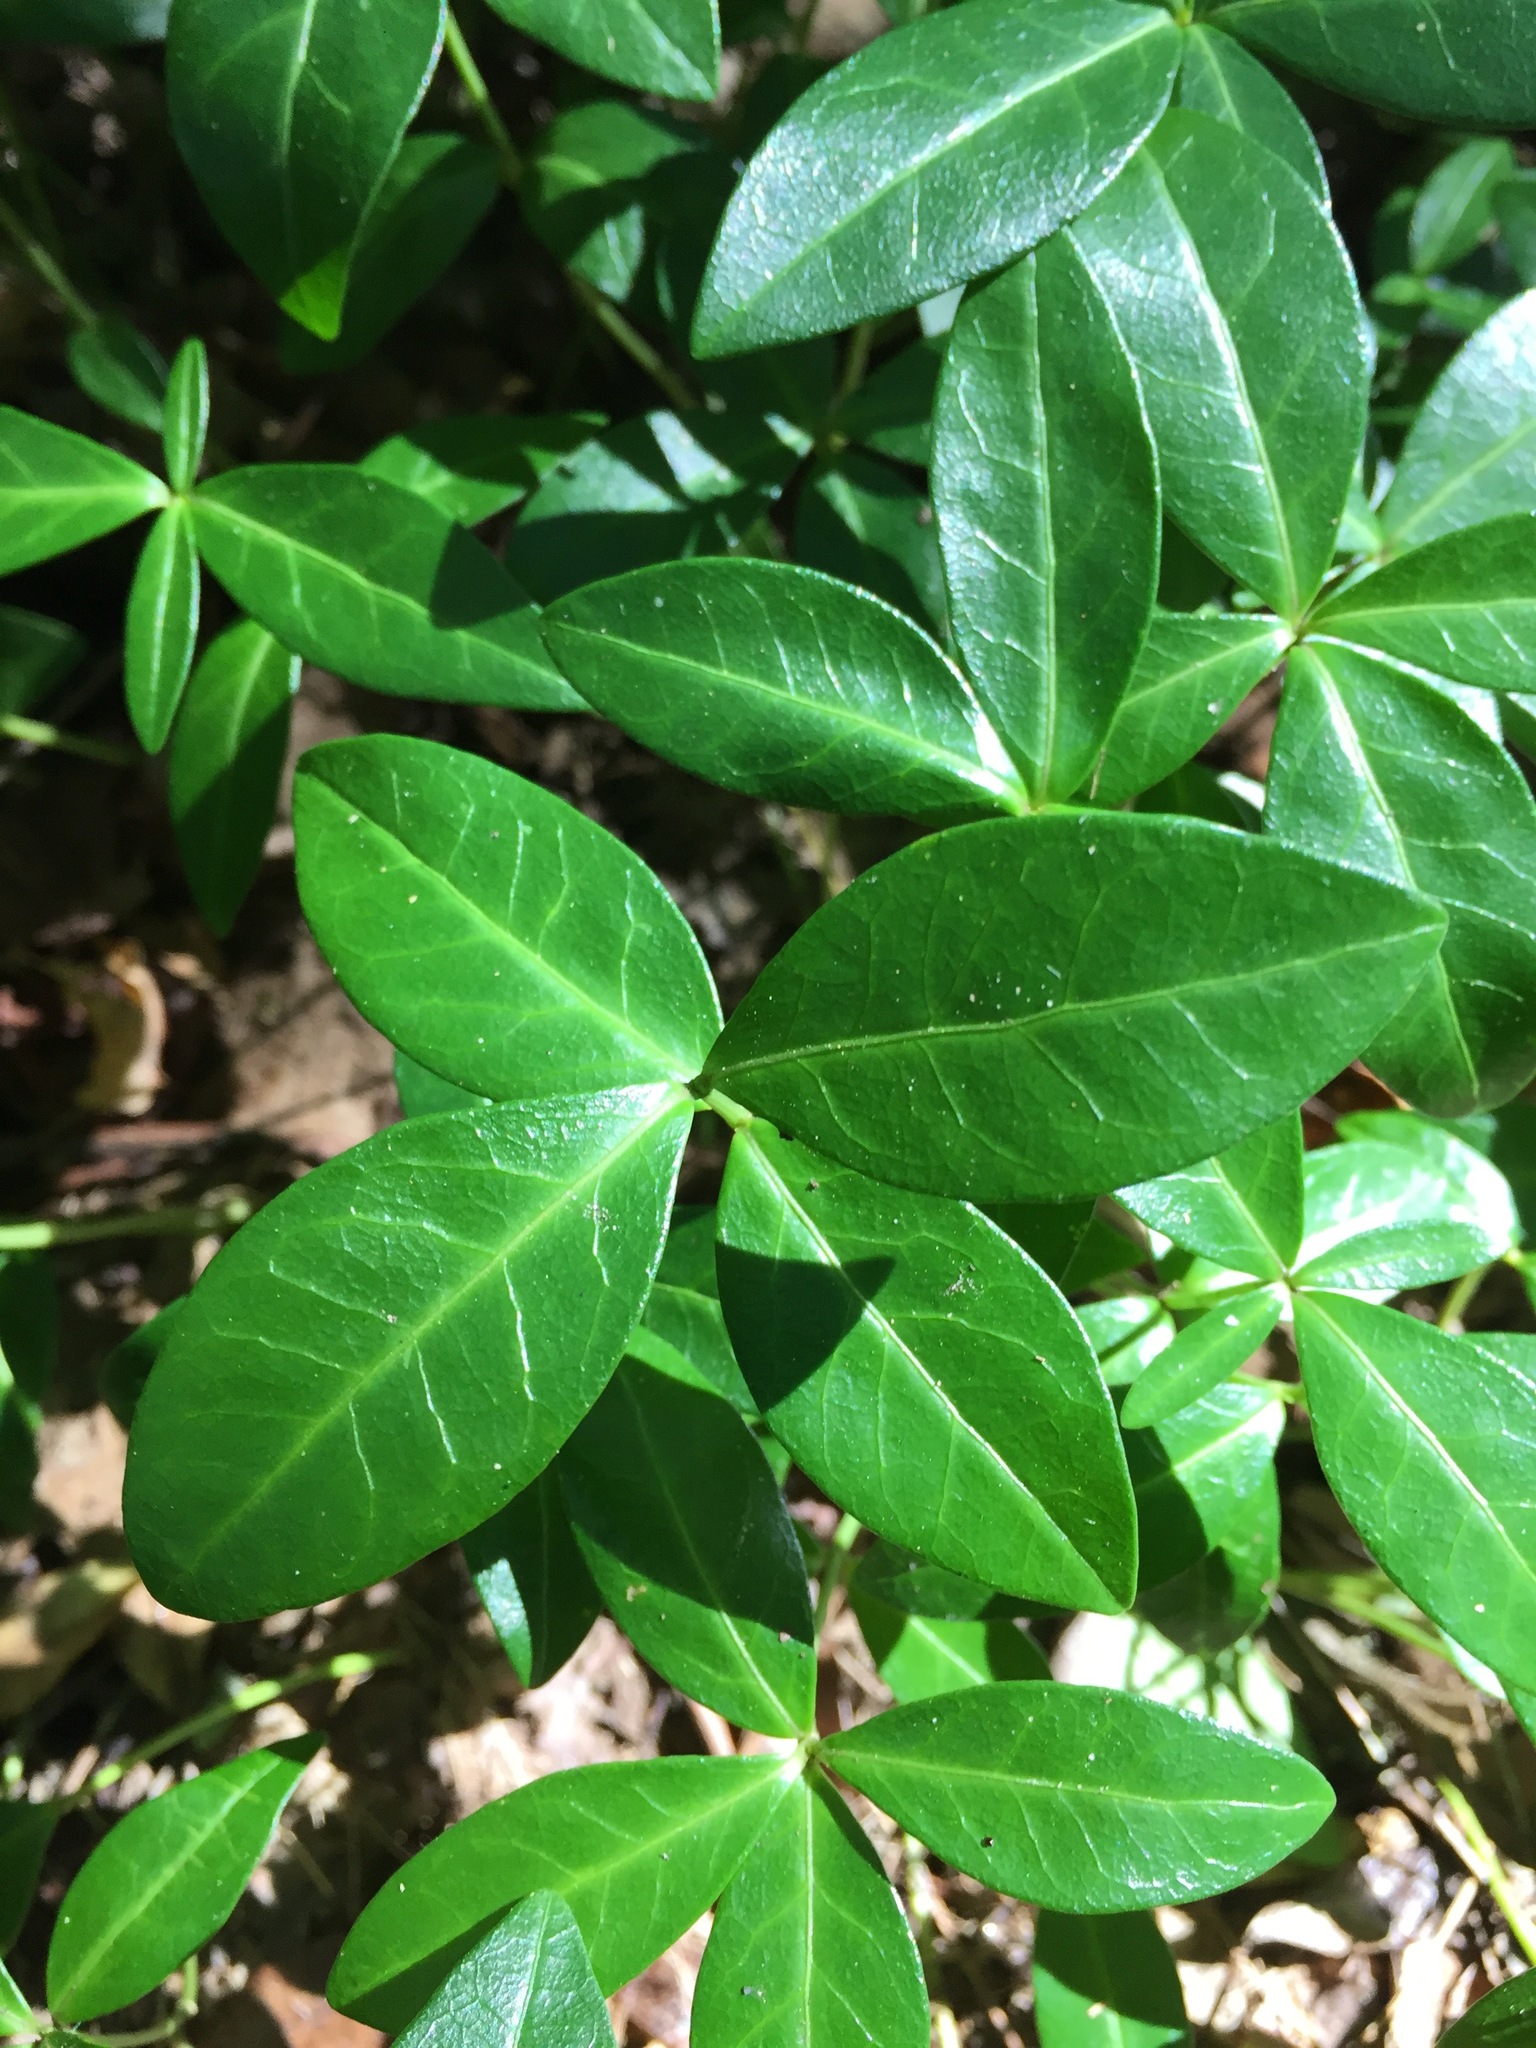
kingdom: Plantae
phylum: Tracheophyta
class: Magnoliopsida
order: Gentianales
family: Apocynaceae
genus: Vinca
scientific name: Vinca minor
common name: Lesser periwinkle
